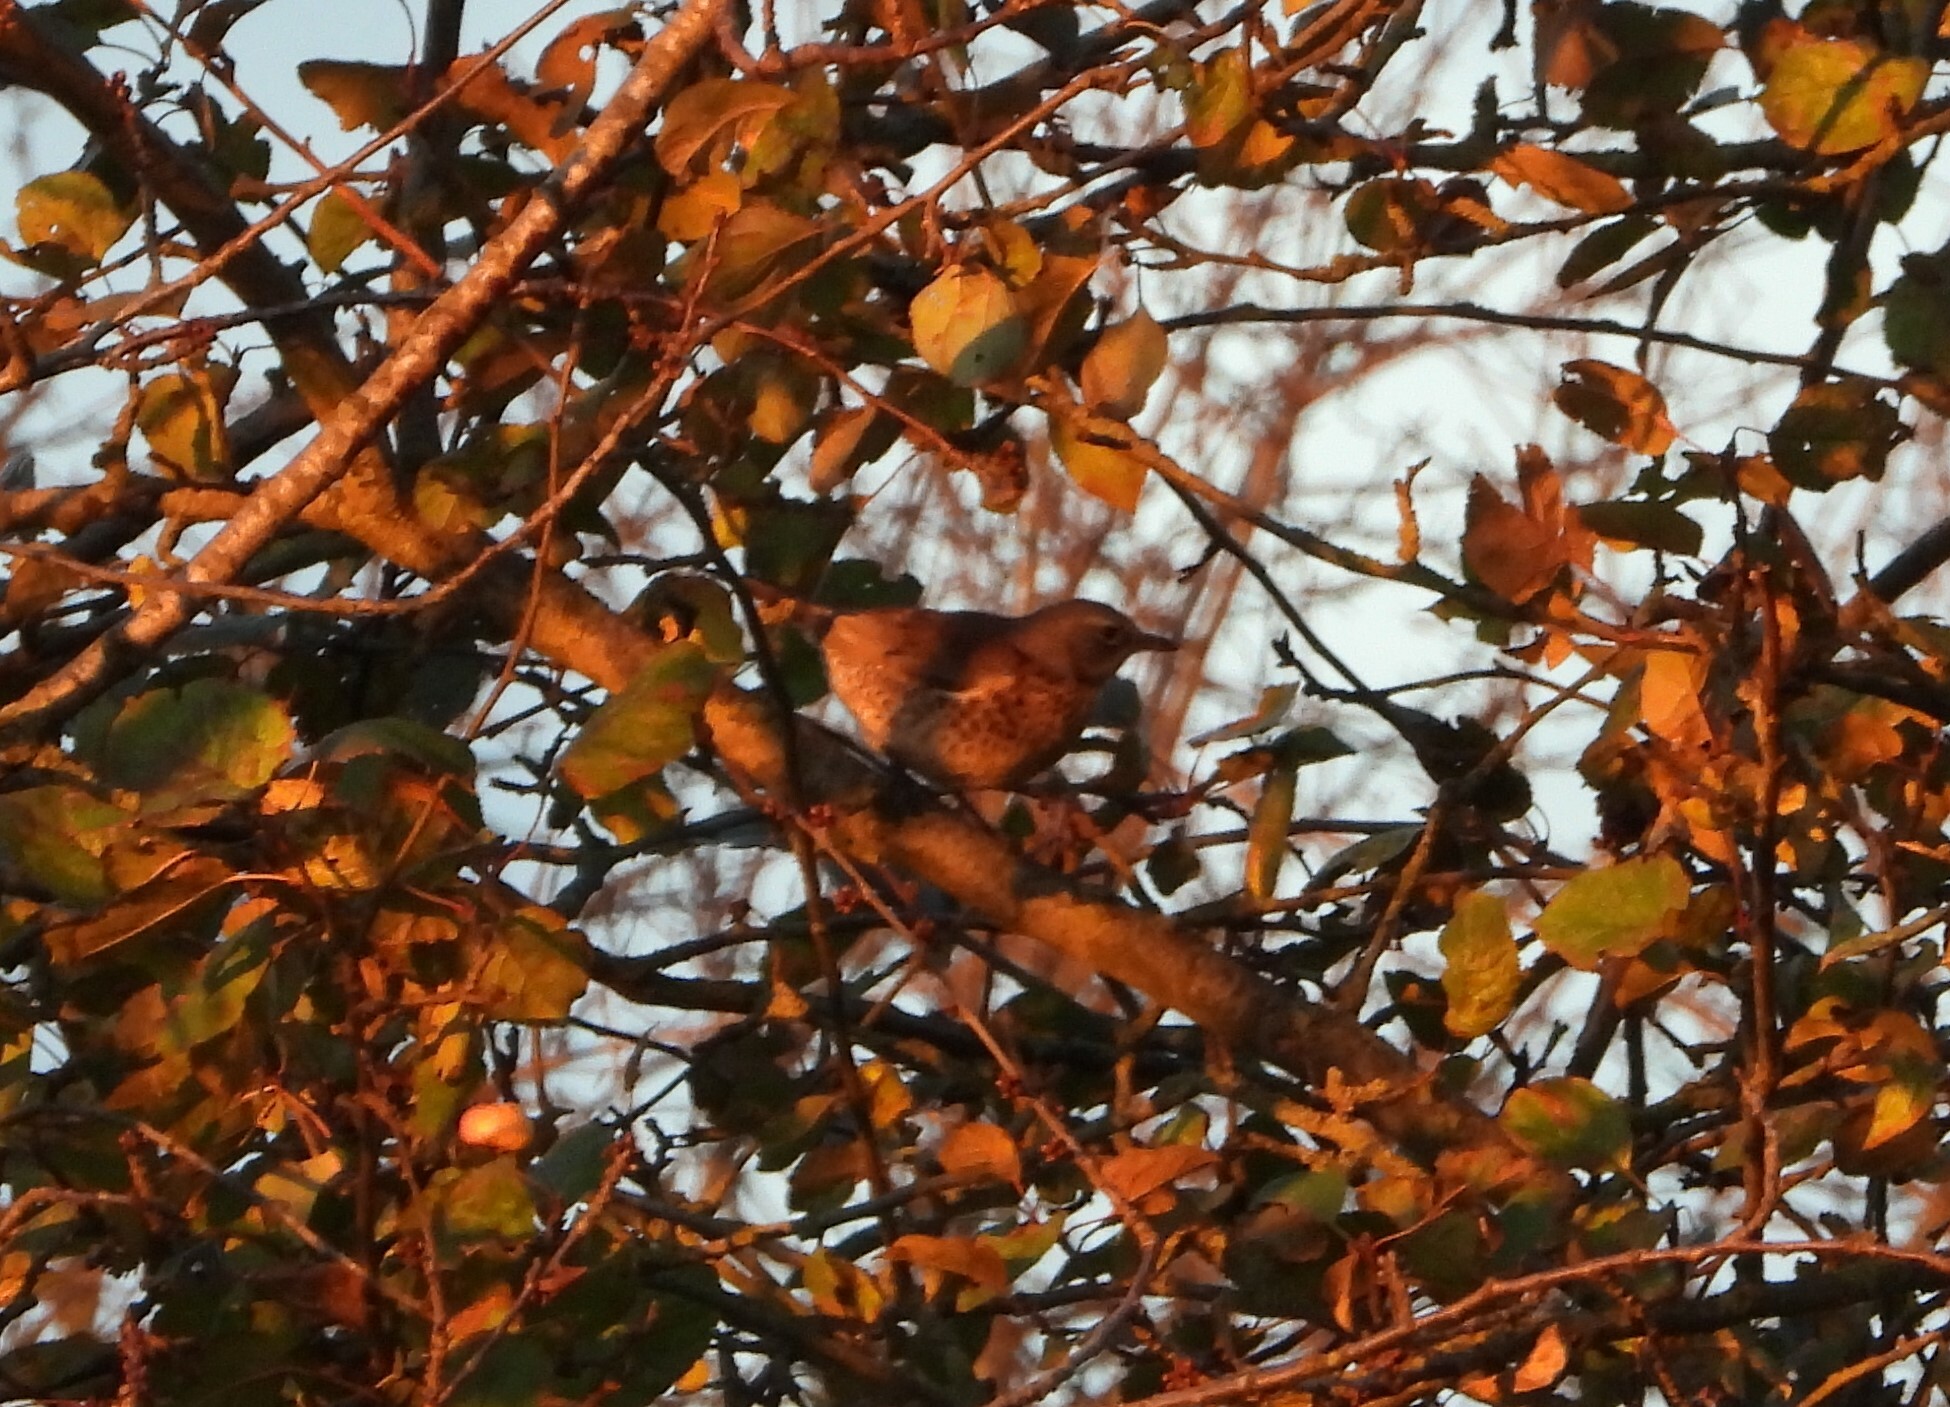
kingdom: Animalia
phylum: Chordata
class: Aves
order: Passeriformes
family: Turdidae
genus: Turdus
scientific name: Turdus pilaris
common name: Fieldfare
